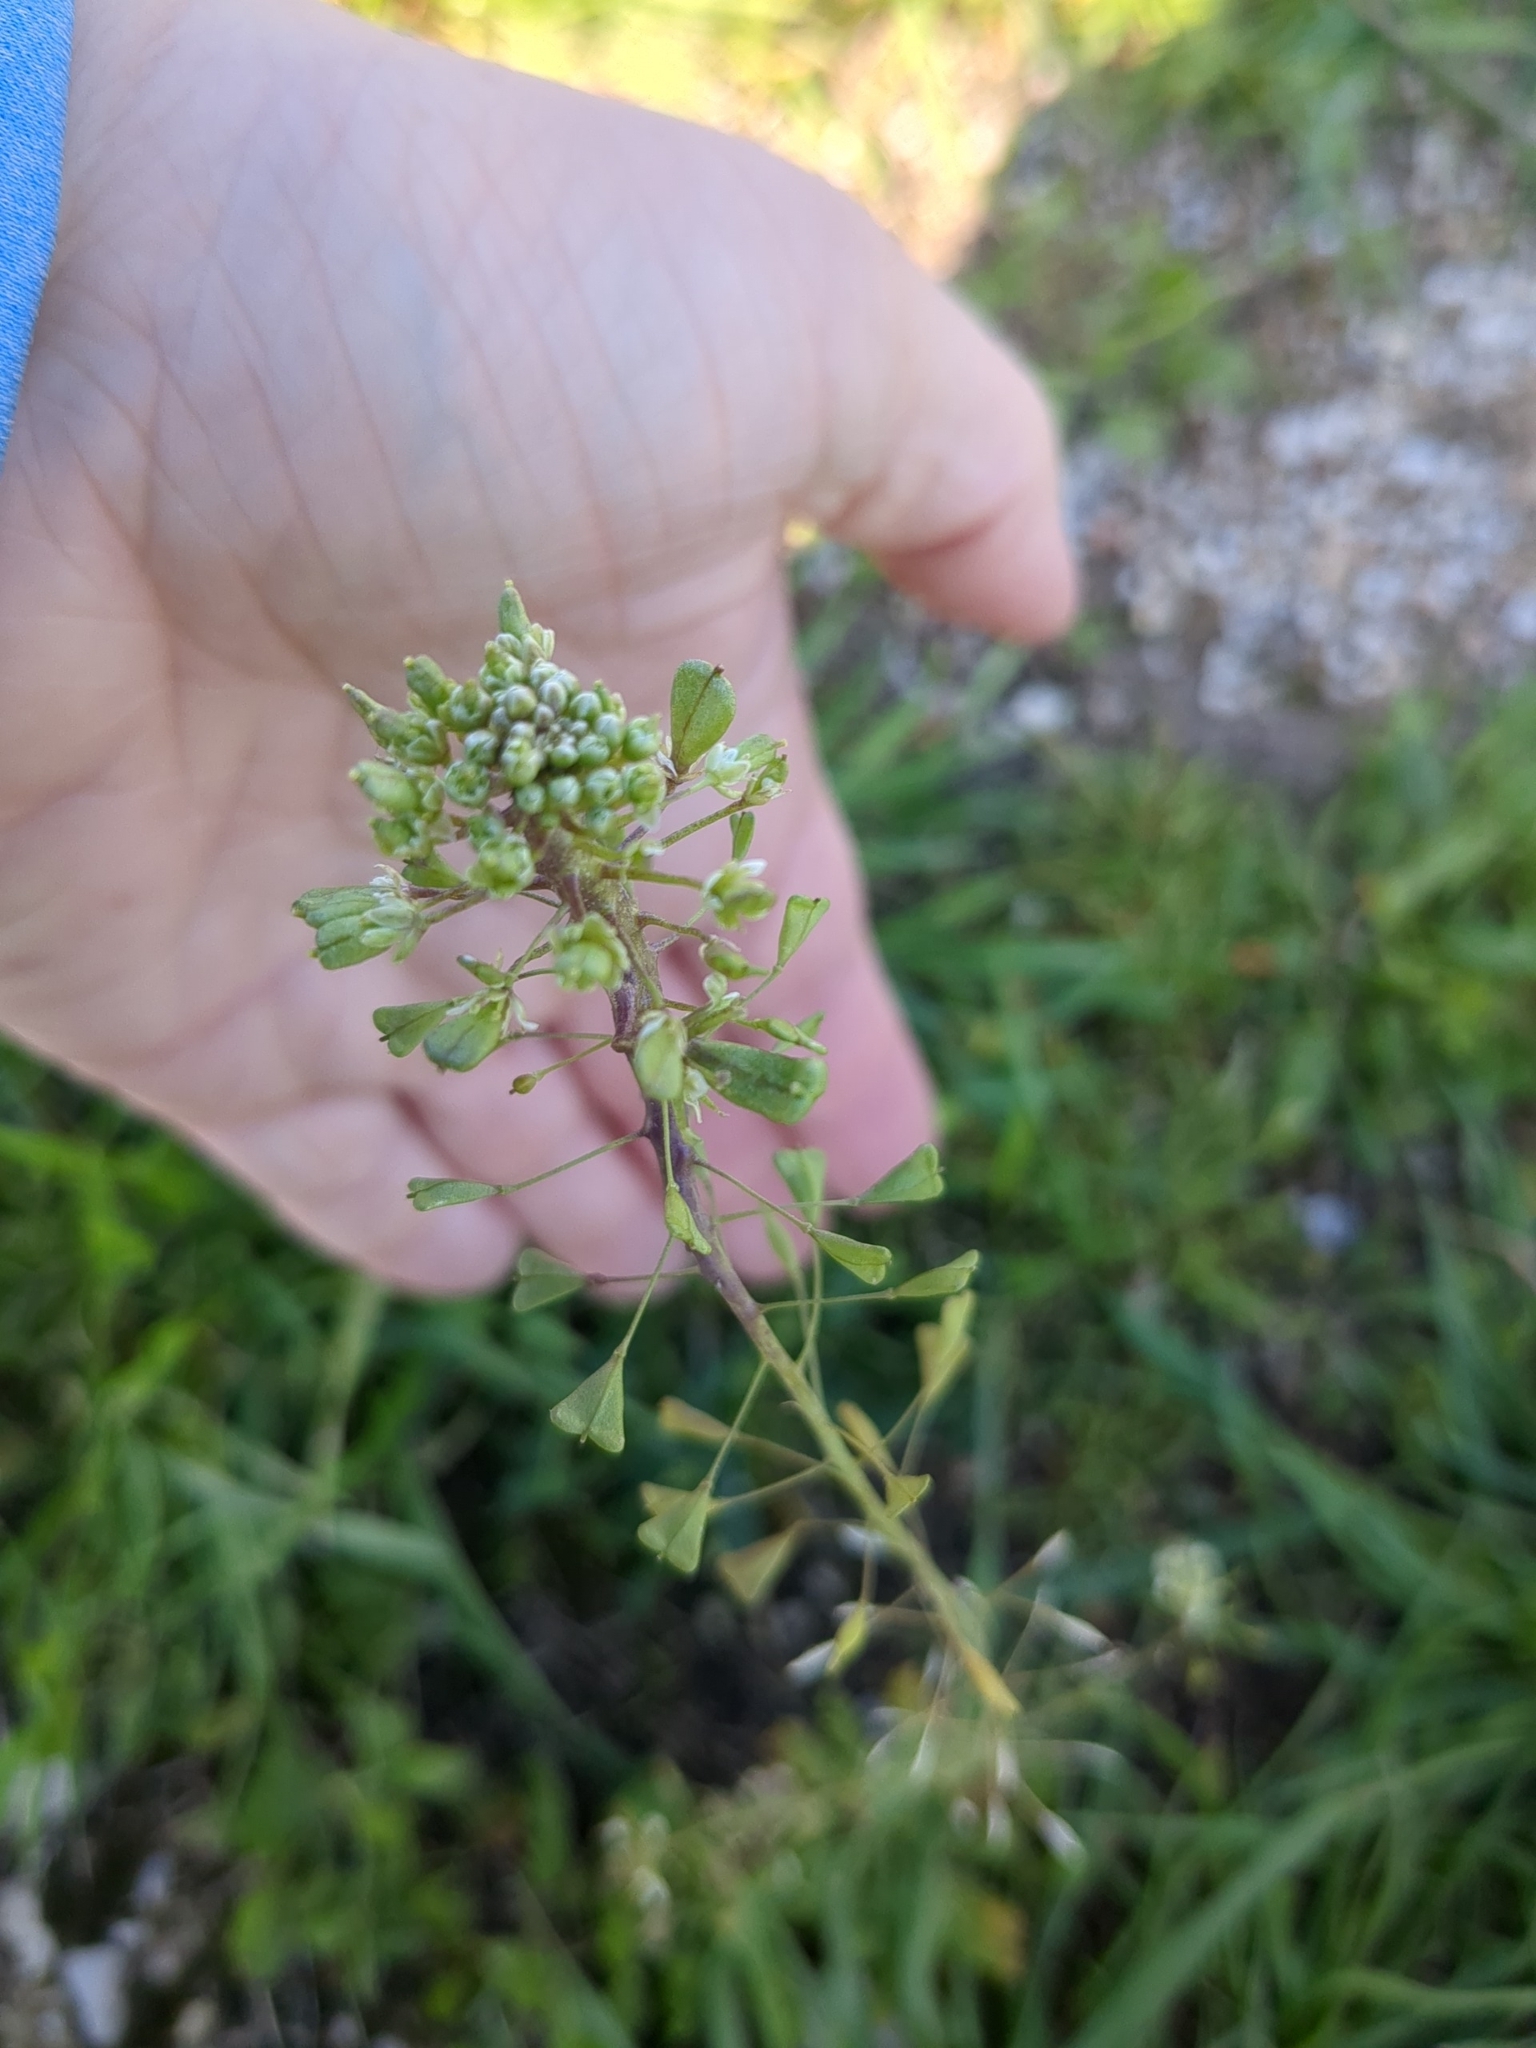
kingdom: Plantae
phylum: Tracheophyta
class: Magnoliopsida
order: Brassicales
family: Brassicaceae
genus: Capsella
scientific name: Capsella bursa-pastoris
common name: Shepherd's purse
